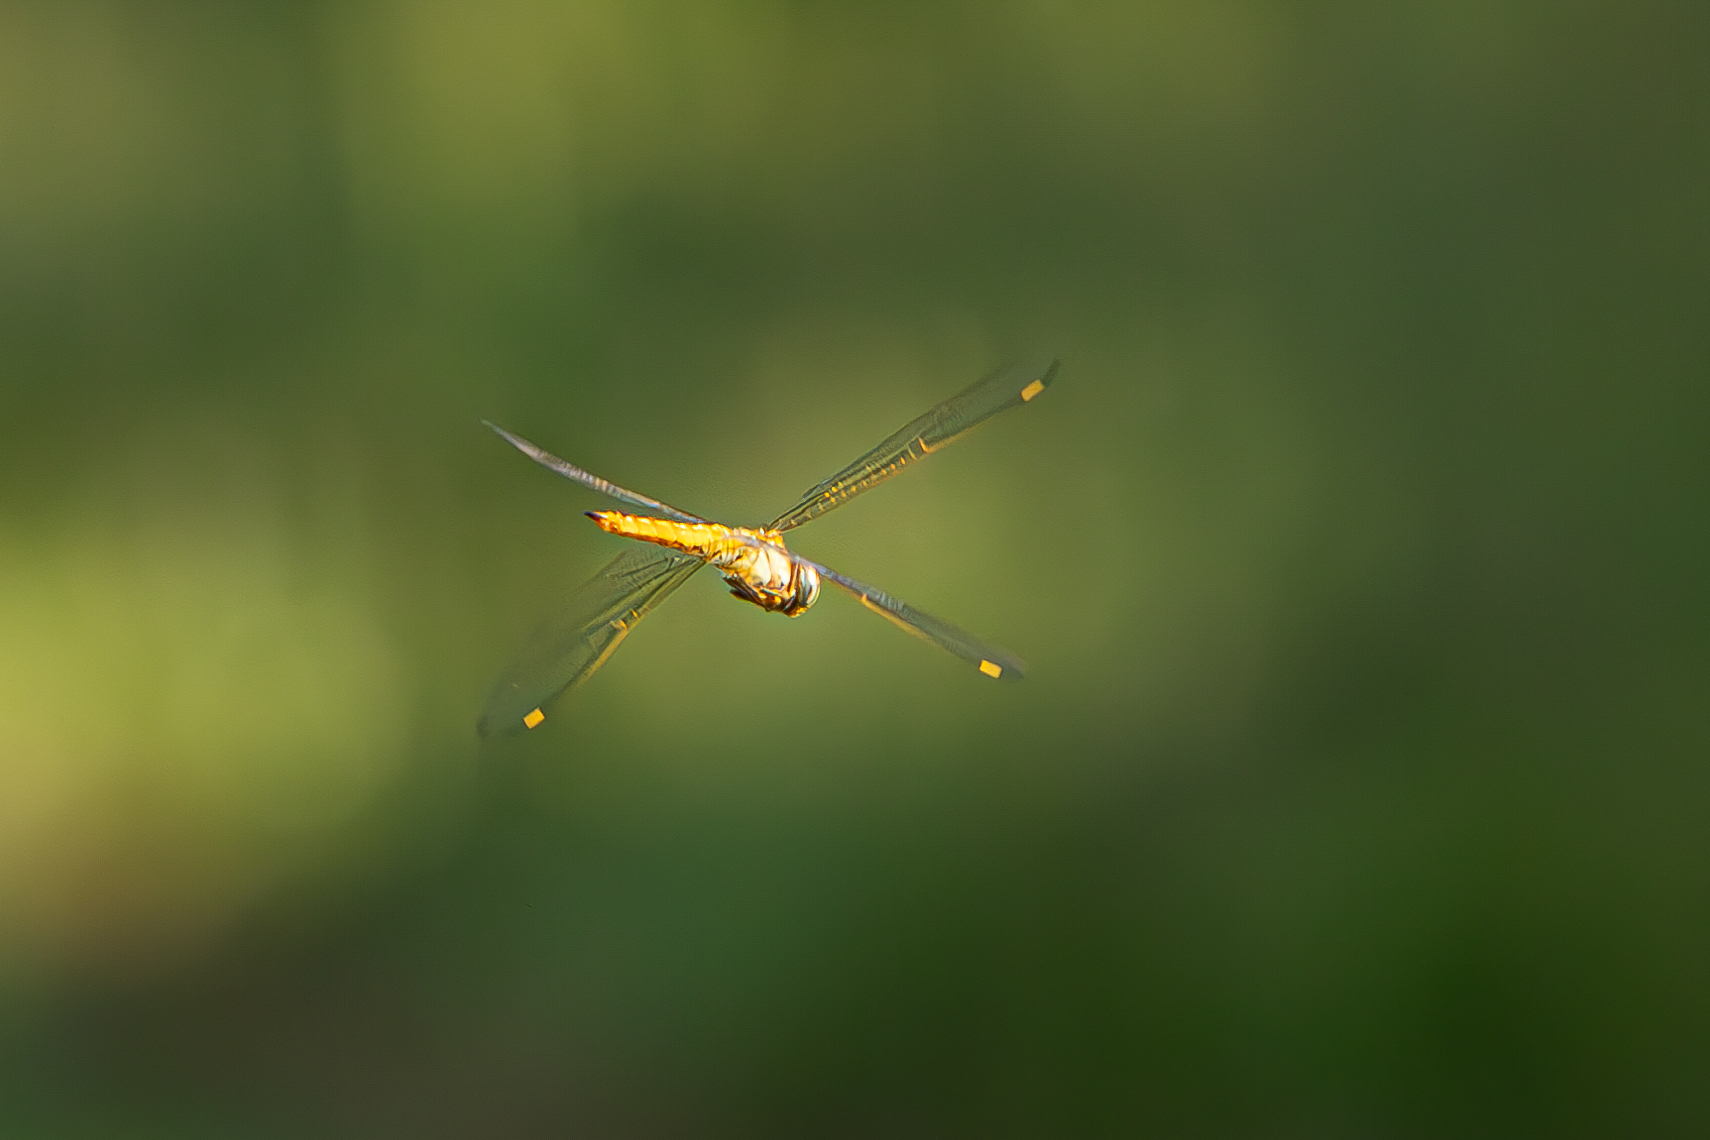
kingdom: Animalia
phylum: Arthropoda
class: Insecta
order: Odonata
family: Libellulidae
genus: Pantala
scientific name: Pantala flavescens
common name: Wandering glider
